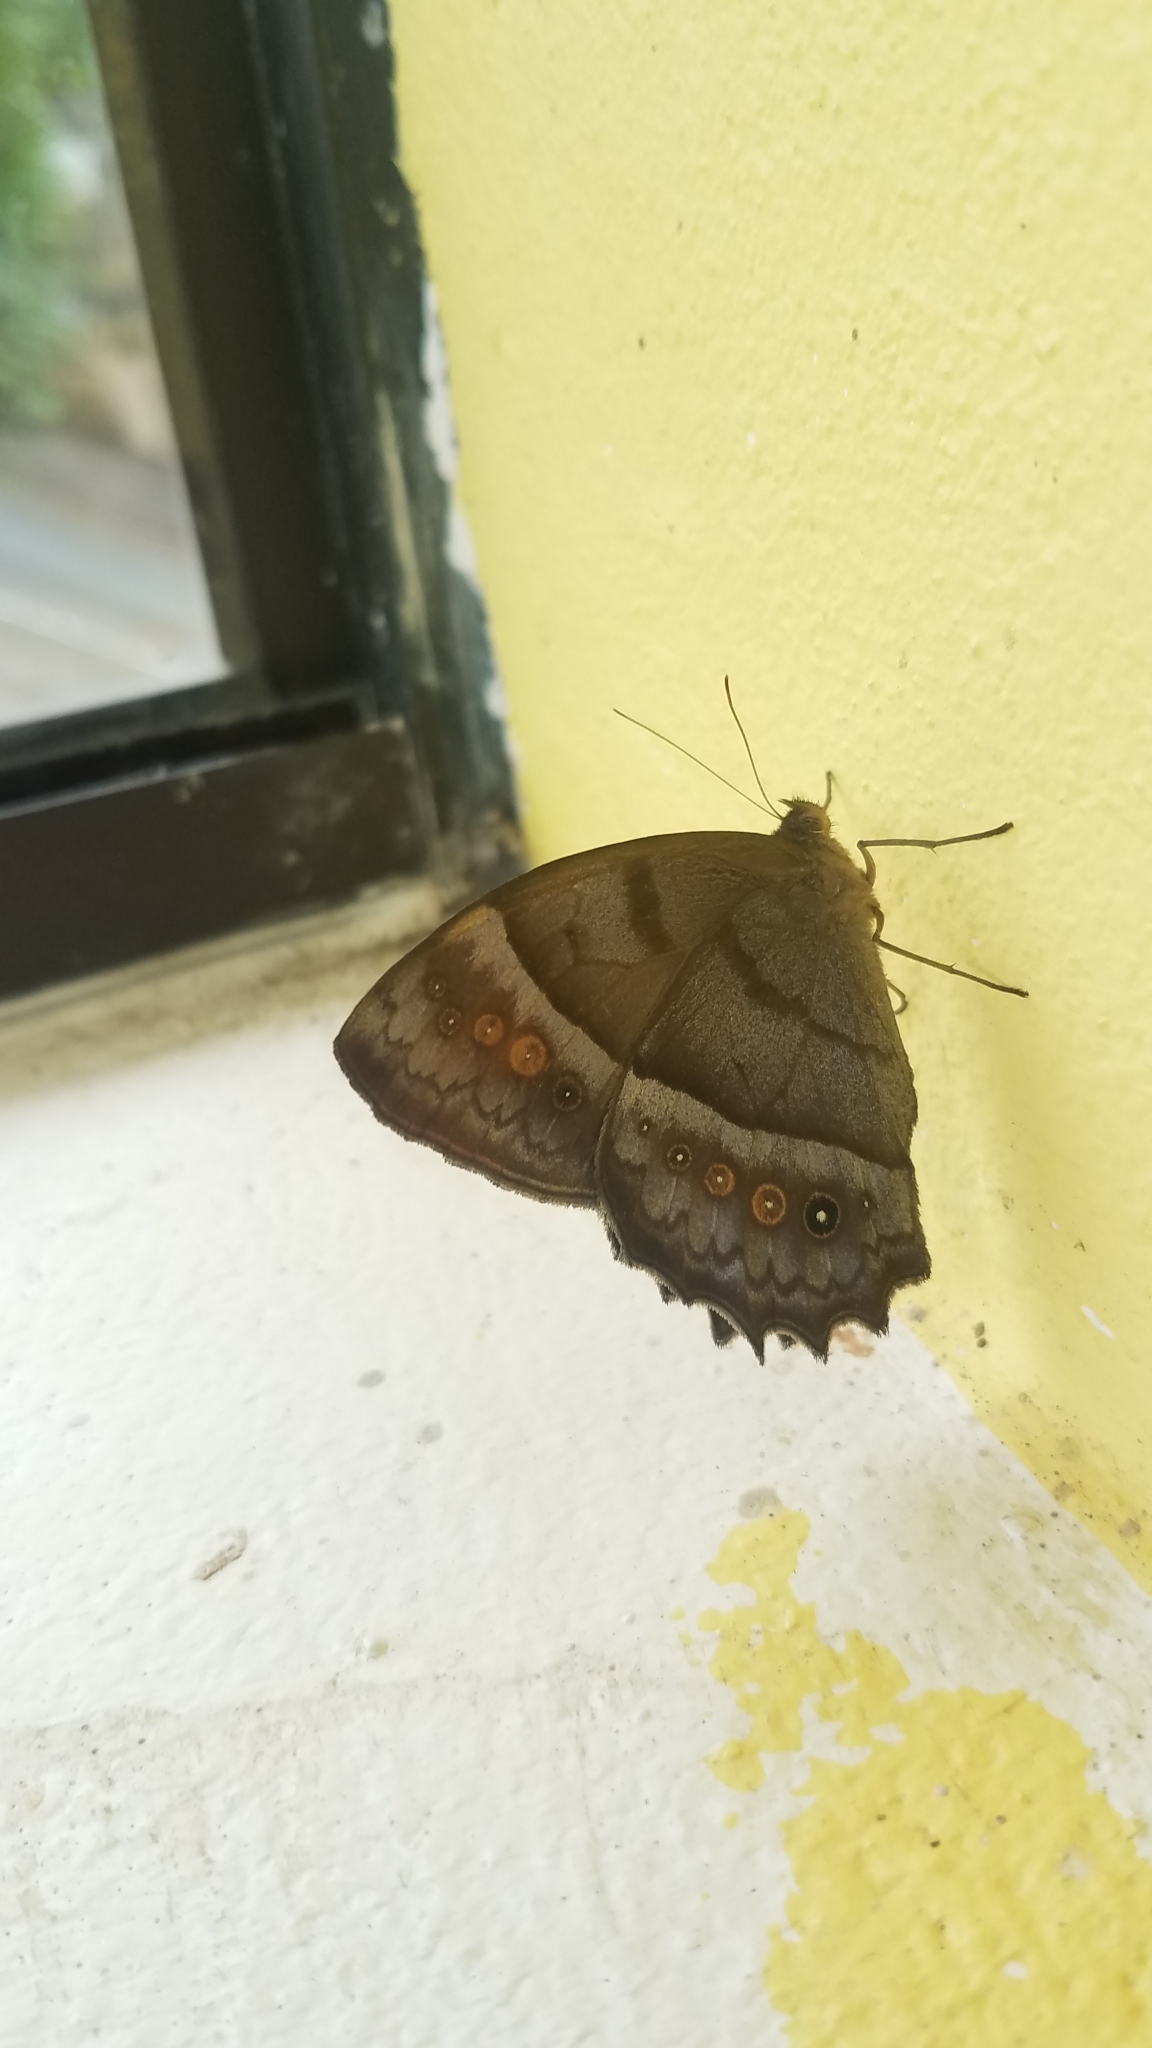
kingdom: Animalia
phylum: Arthropoda
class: Insecta
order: Lepidoptera
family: Nymphalidae
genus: Taygetis
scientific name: Taygetis andromeda
